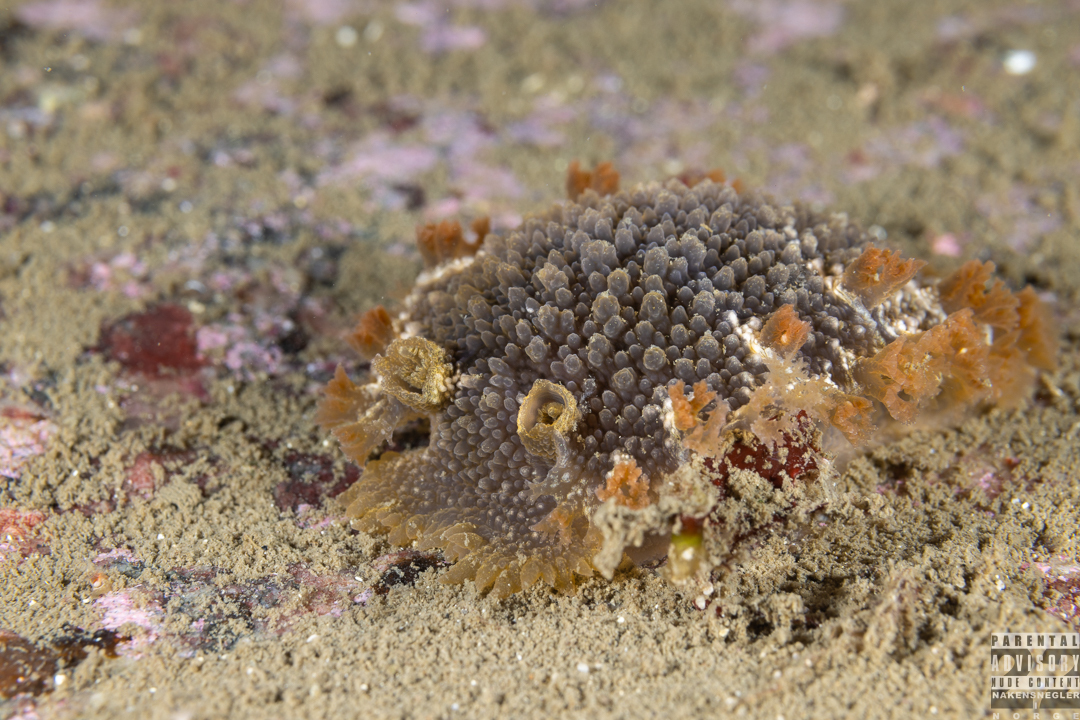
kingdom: Animalia
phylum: Mollusca
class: Gastropoda
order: Nudibranchia
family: Tritoniidae
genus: Tritonia
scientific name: Tritonia hombergii
